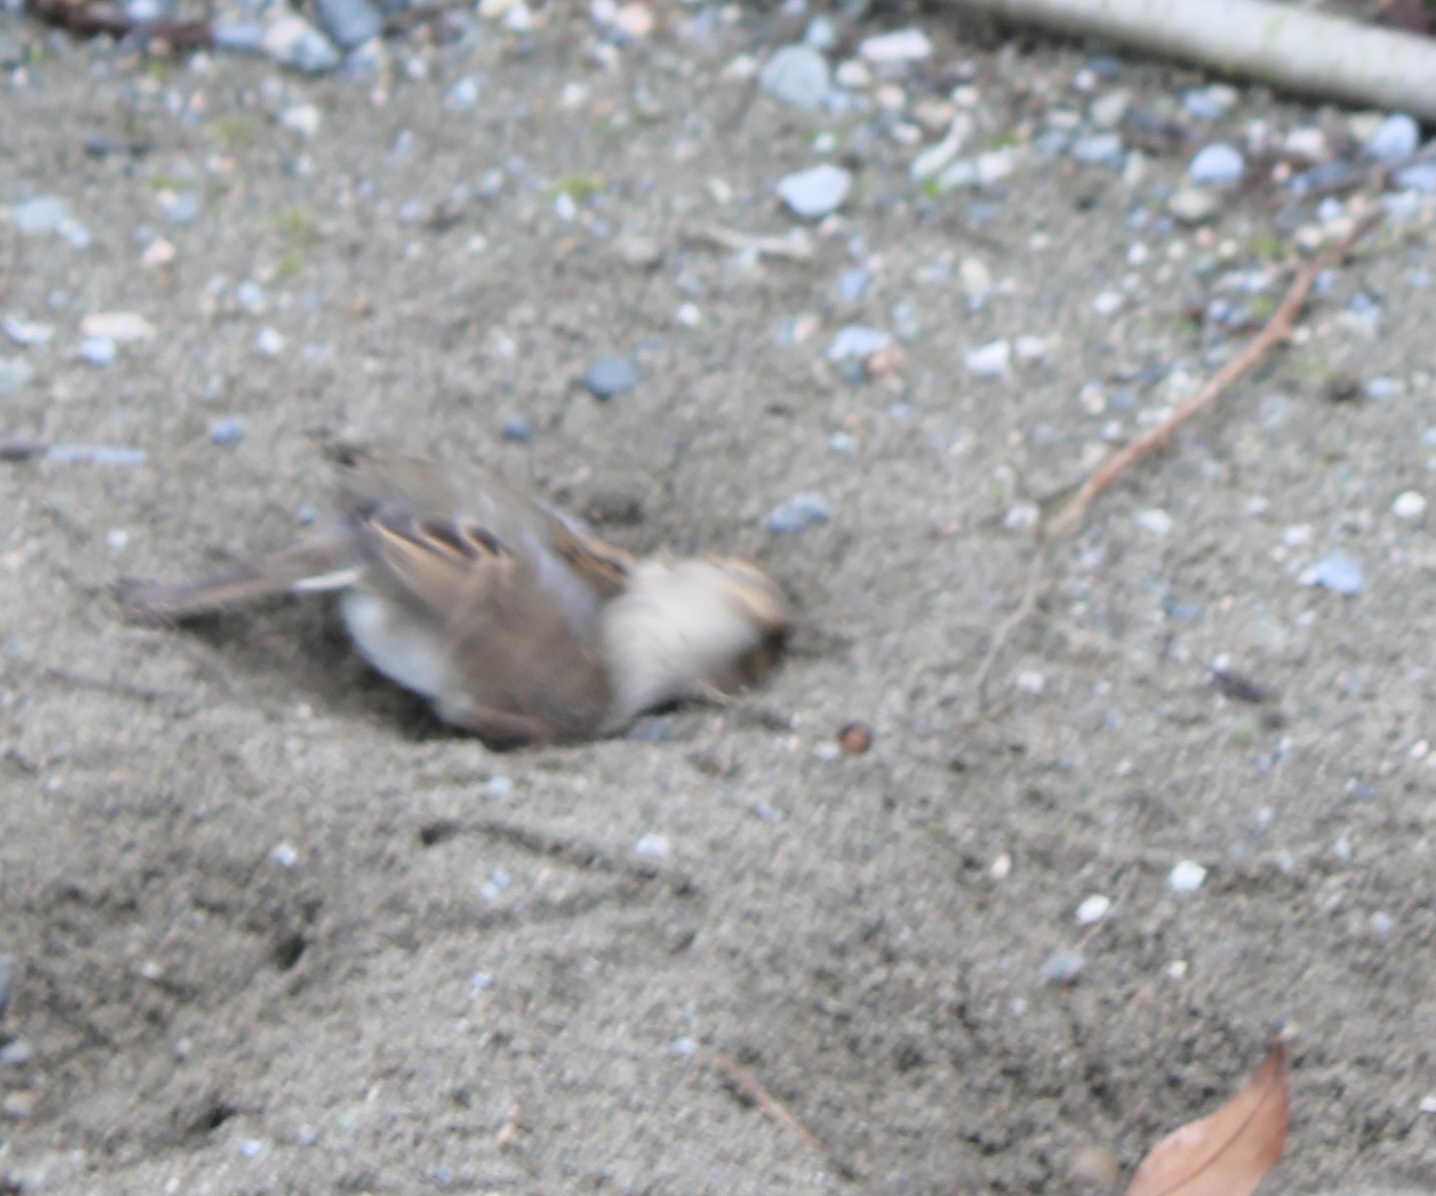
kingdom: Animalia
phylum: Chordata
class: Aves
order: Passeriformes
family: Passeridae
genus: Passer
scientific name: Passer domesticus
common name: House sparrow
